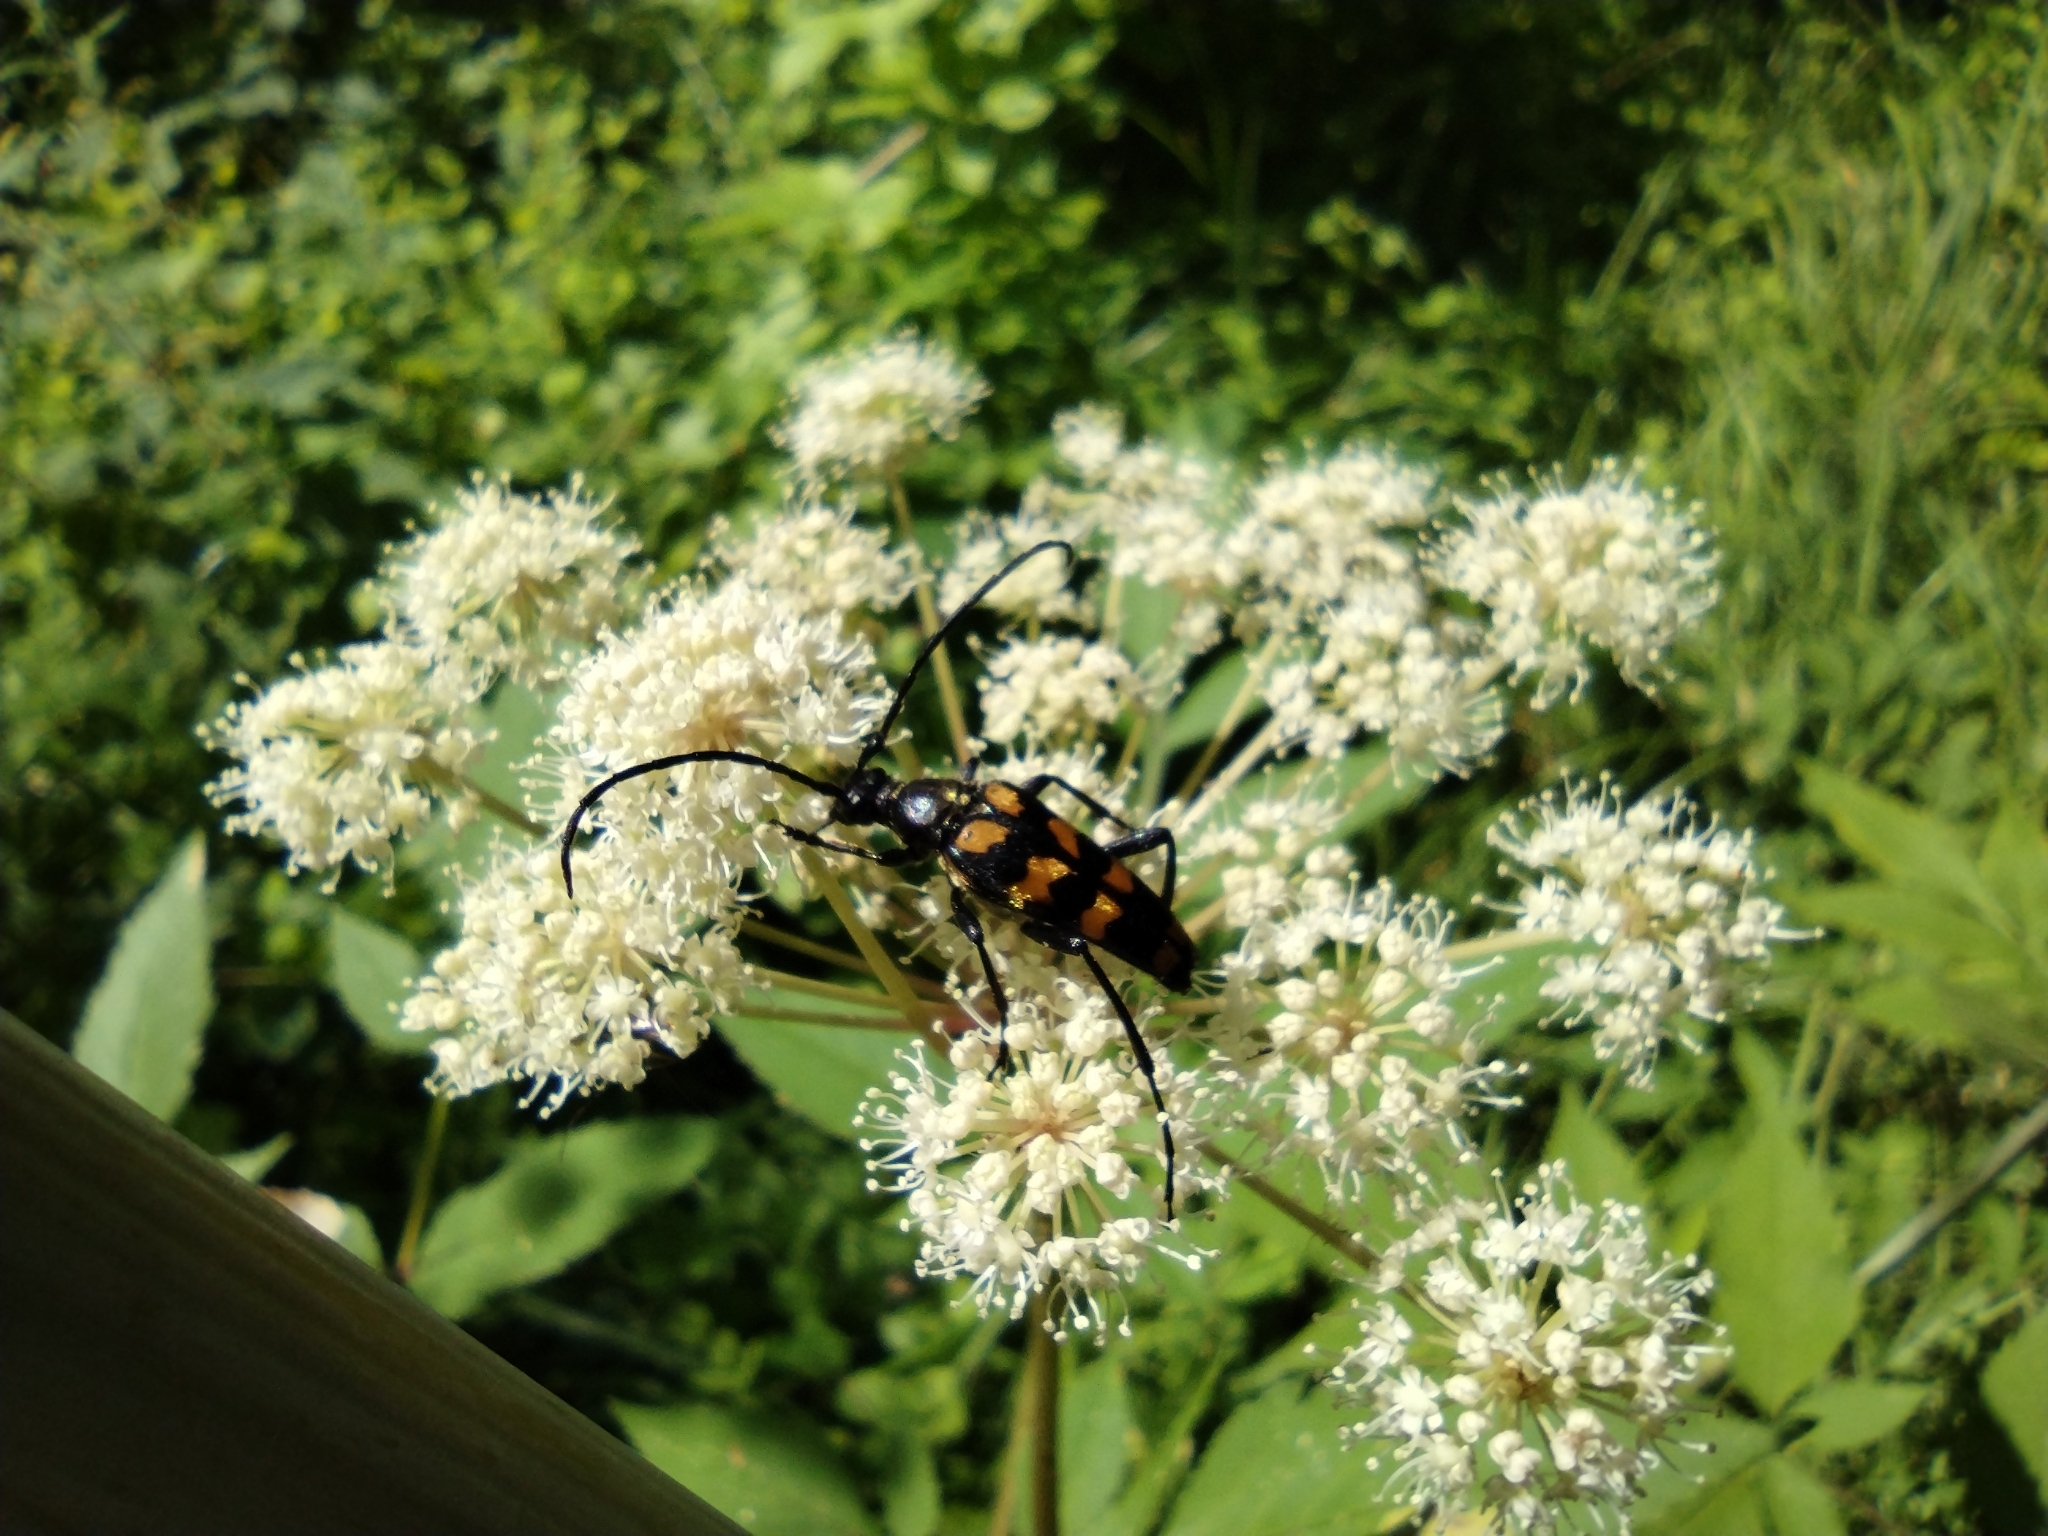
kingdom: Animalia
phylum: Arthropoda
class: Insecta
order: Coleoptera
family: Cerambycidae
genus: Leptura
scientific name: Leptura quadrifasciata
